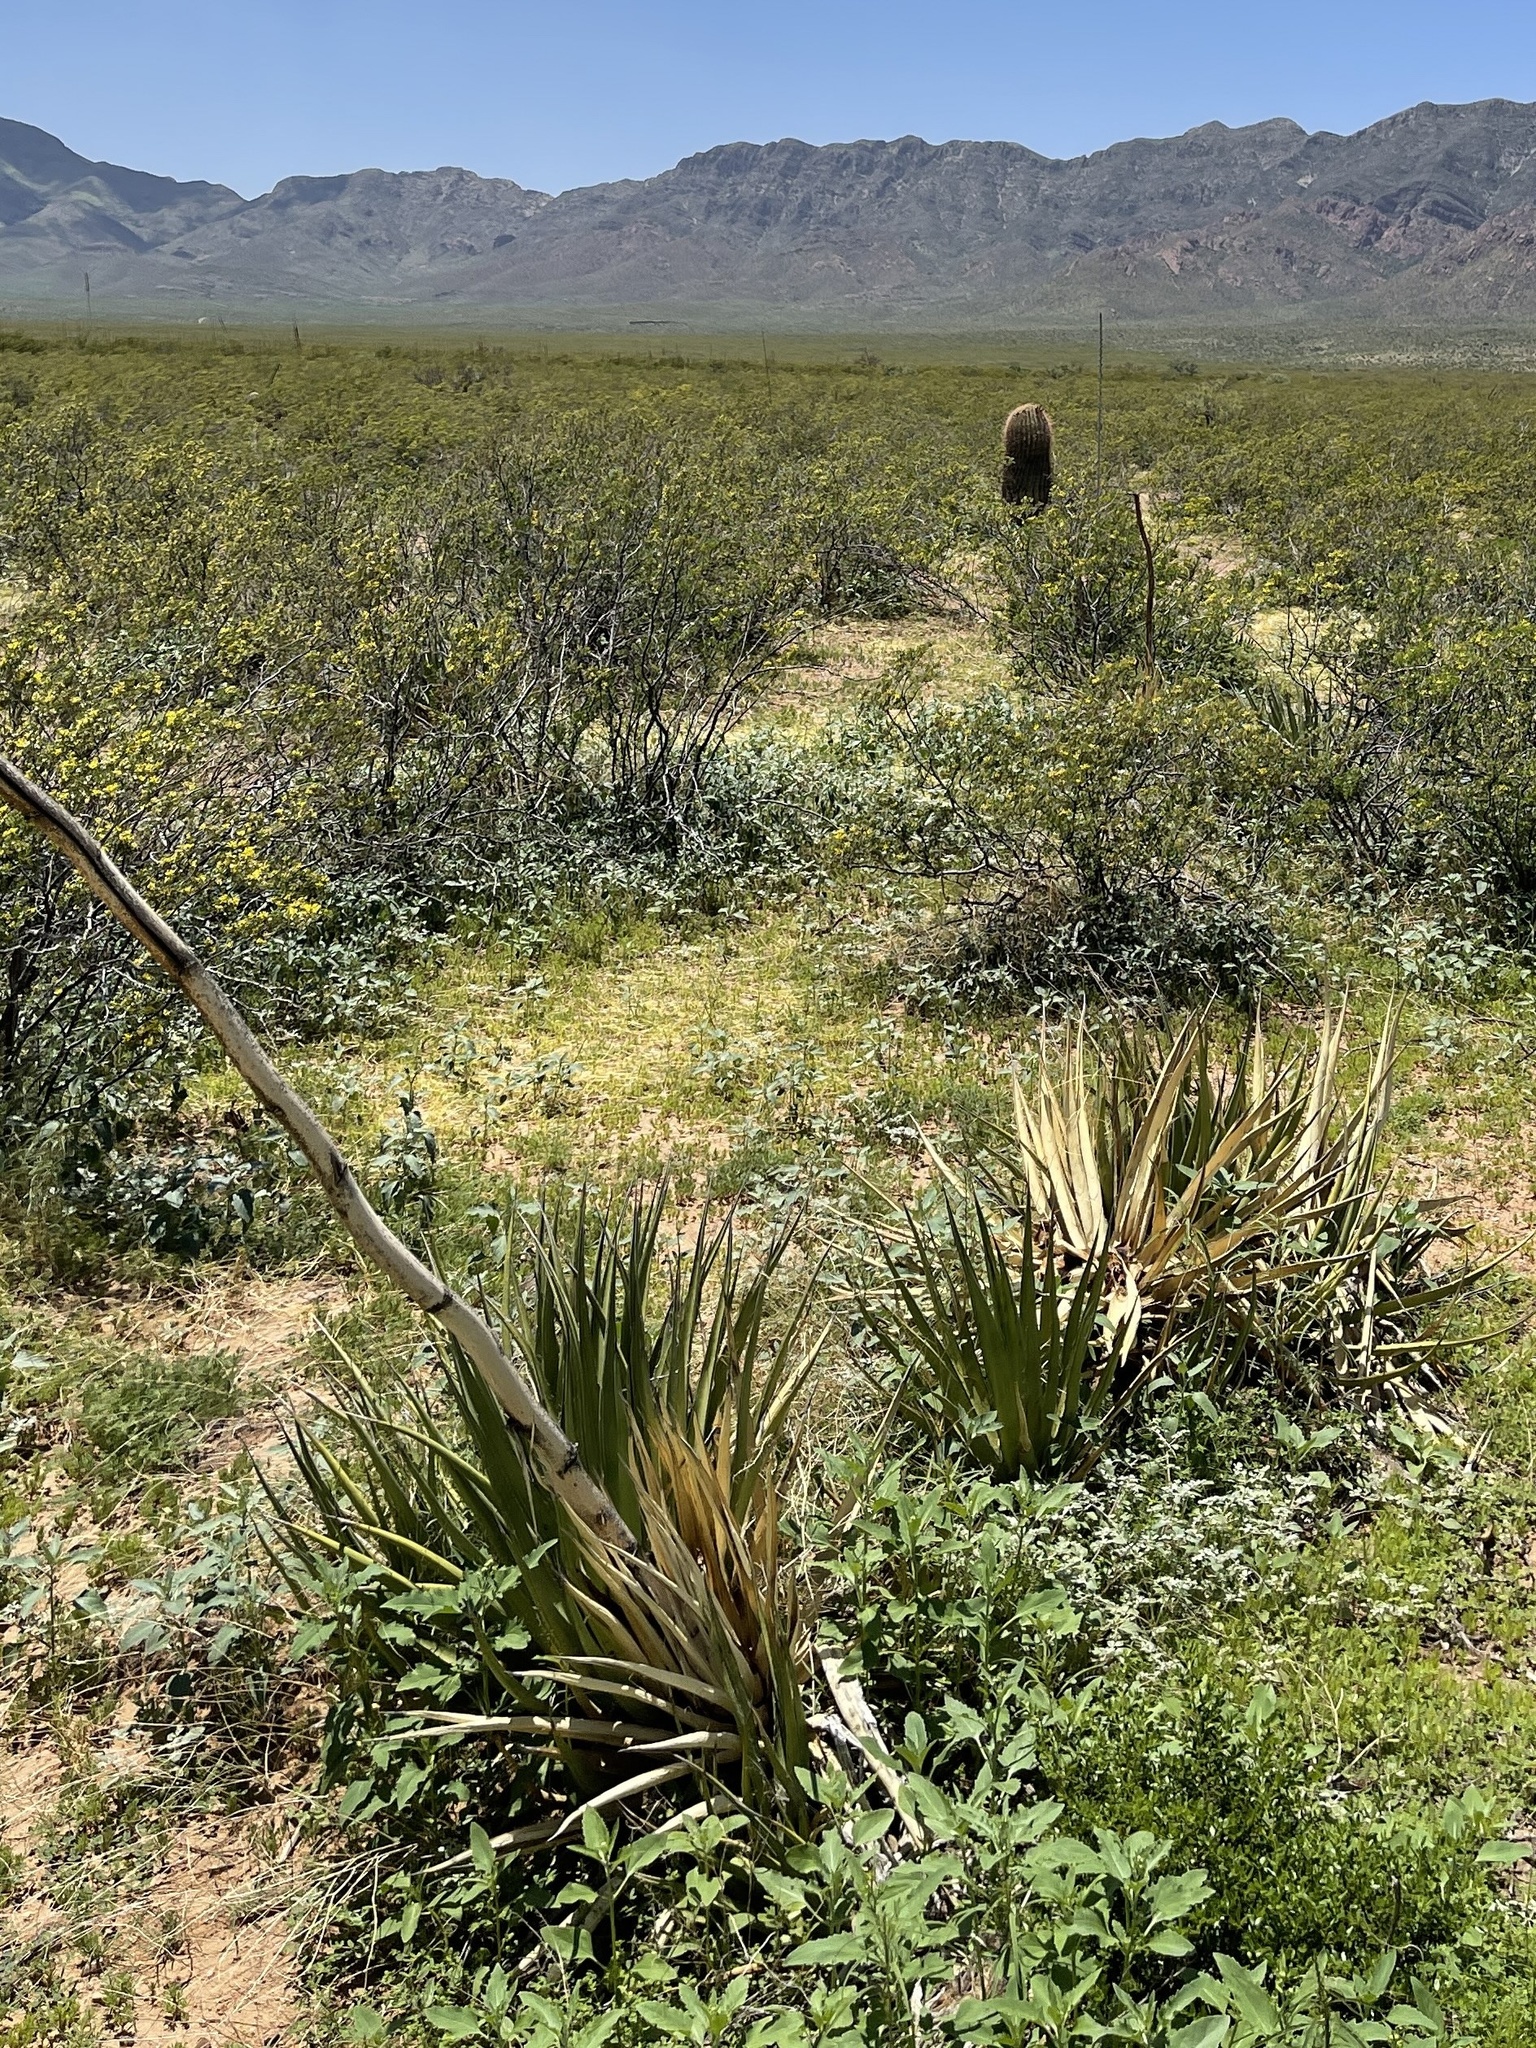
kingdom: Plantae
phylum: Tracheophyta
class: Liliopsida
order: Asparagales
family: Asparagaceae
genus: Agave
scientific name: Agave lechuguilla
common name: Lecheguilla agave
